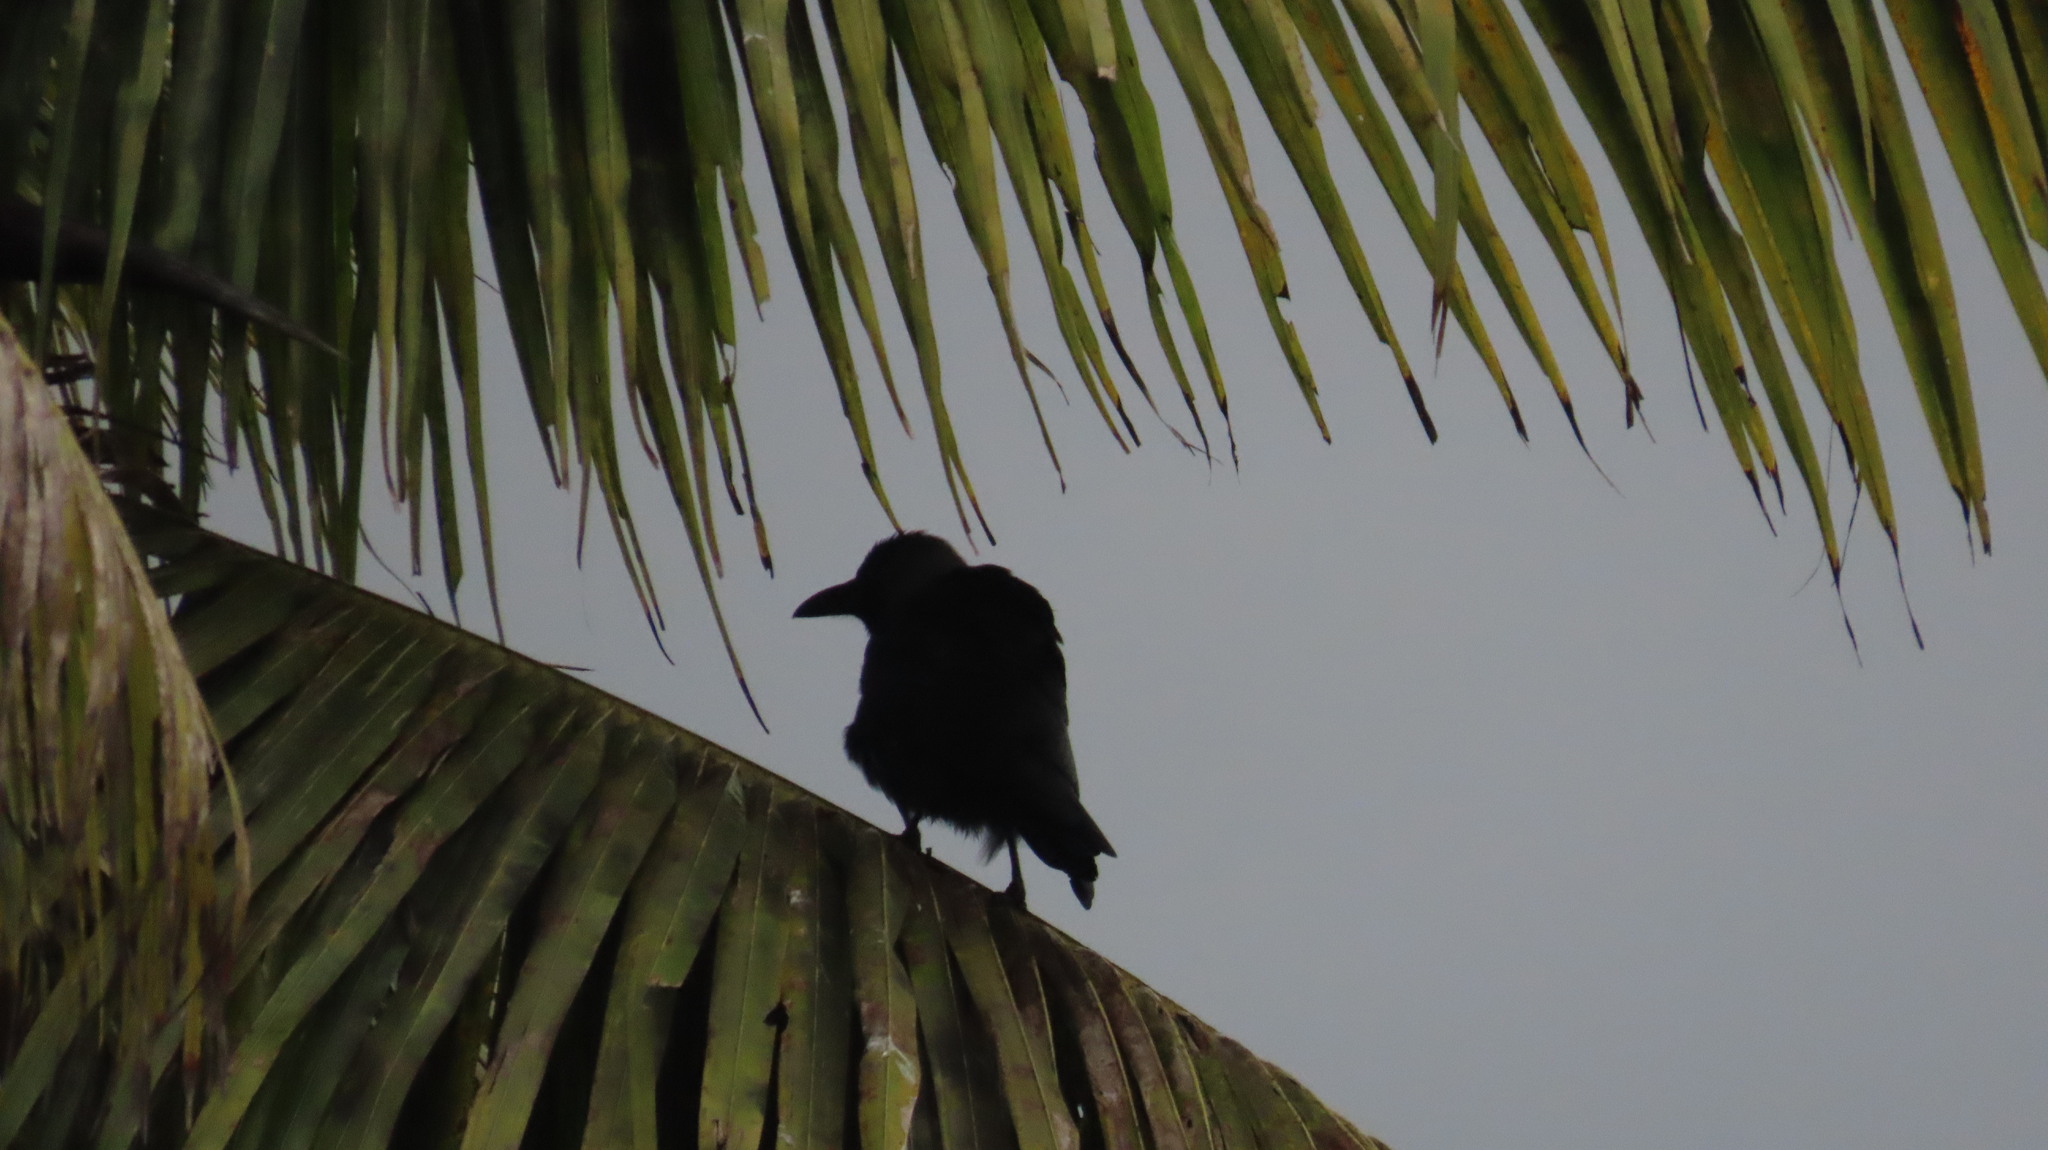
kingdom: Animalia
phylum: Chordata
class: Aves
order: Passeriformes
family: Corvidae
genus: Corvus
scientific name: Corvus splendens
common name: House crow
